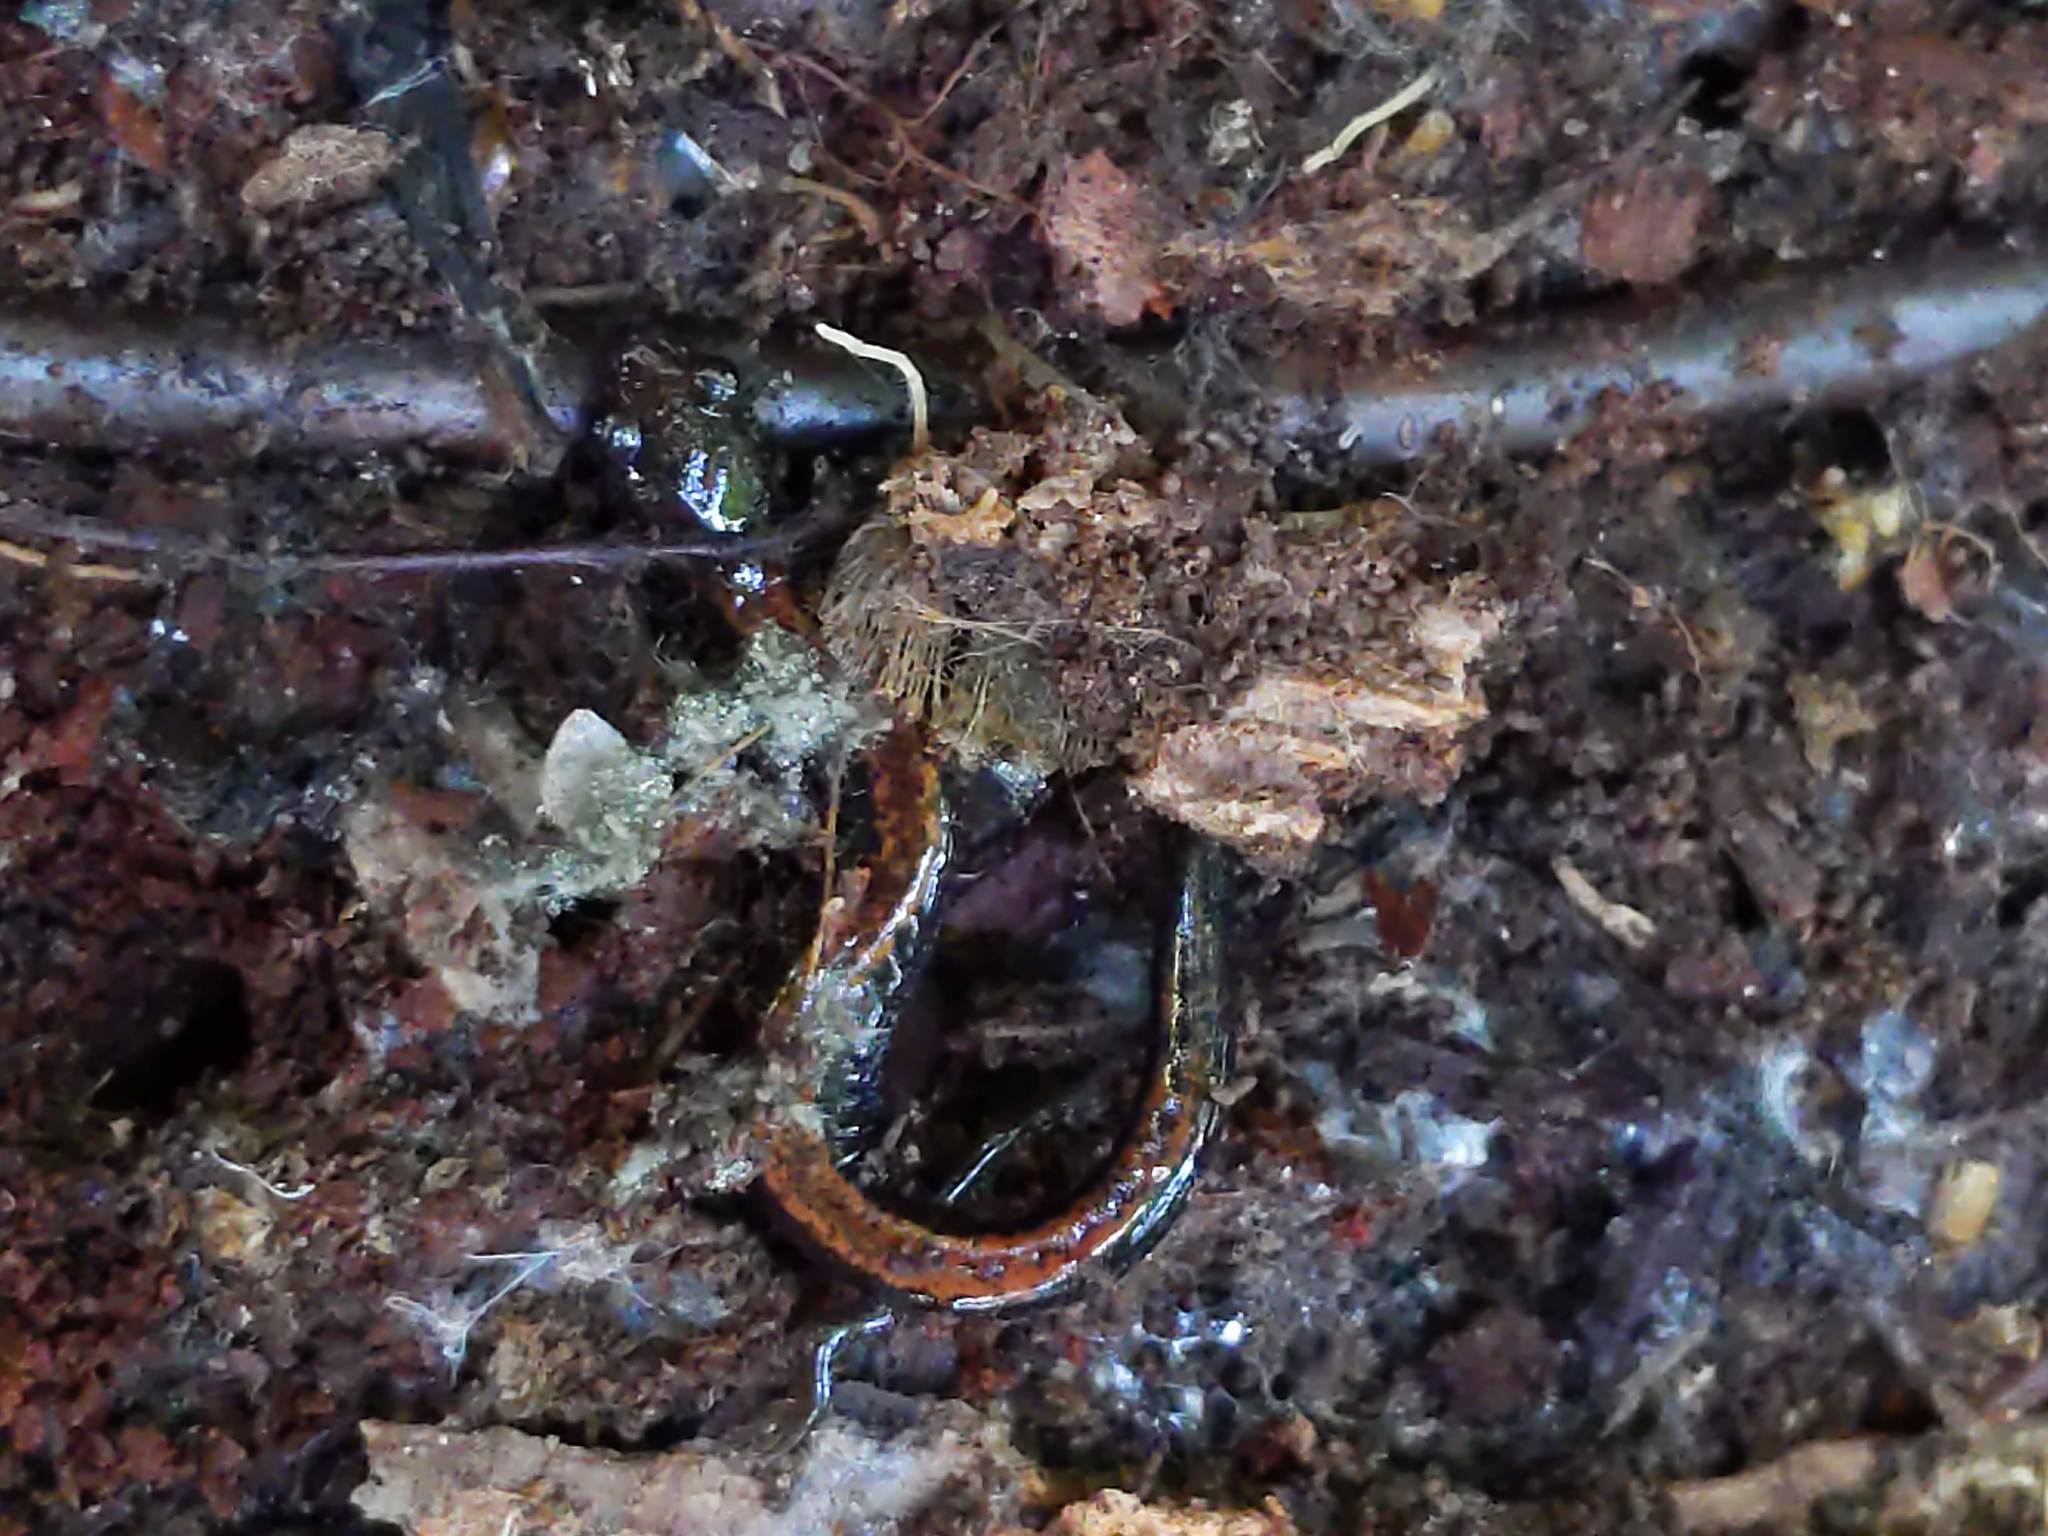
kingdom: Animalia
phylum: Chordata
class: Amphibia
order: Caudata
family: Plethodontidae
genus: Plethodon
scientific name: Plethodon cinereus
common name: Redback salamander
